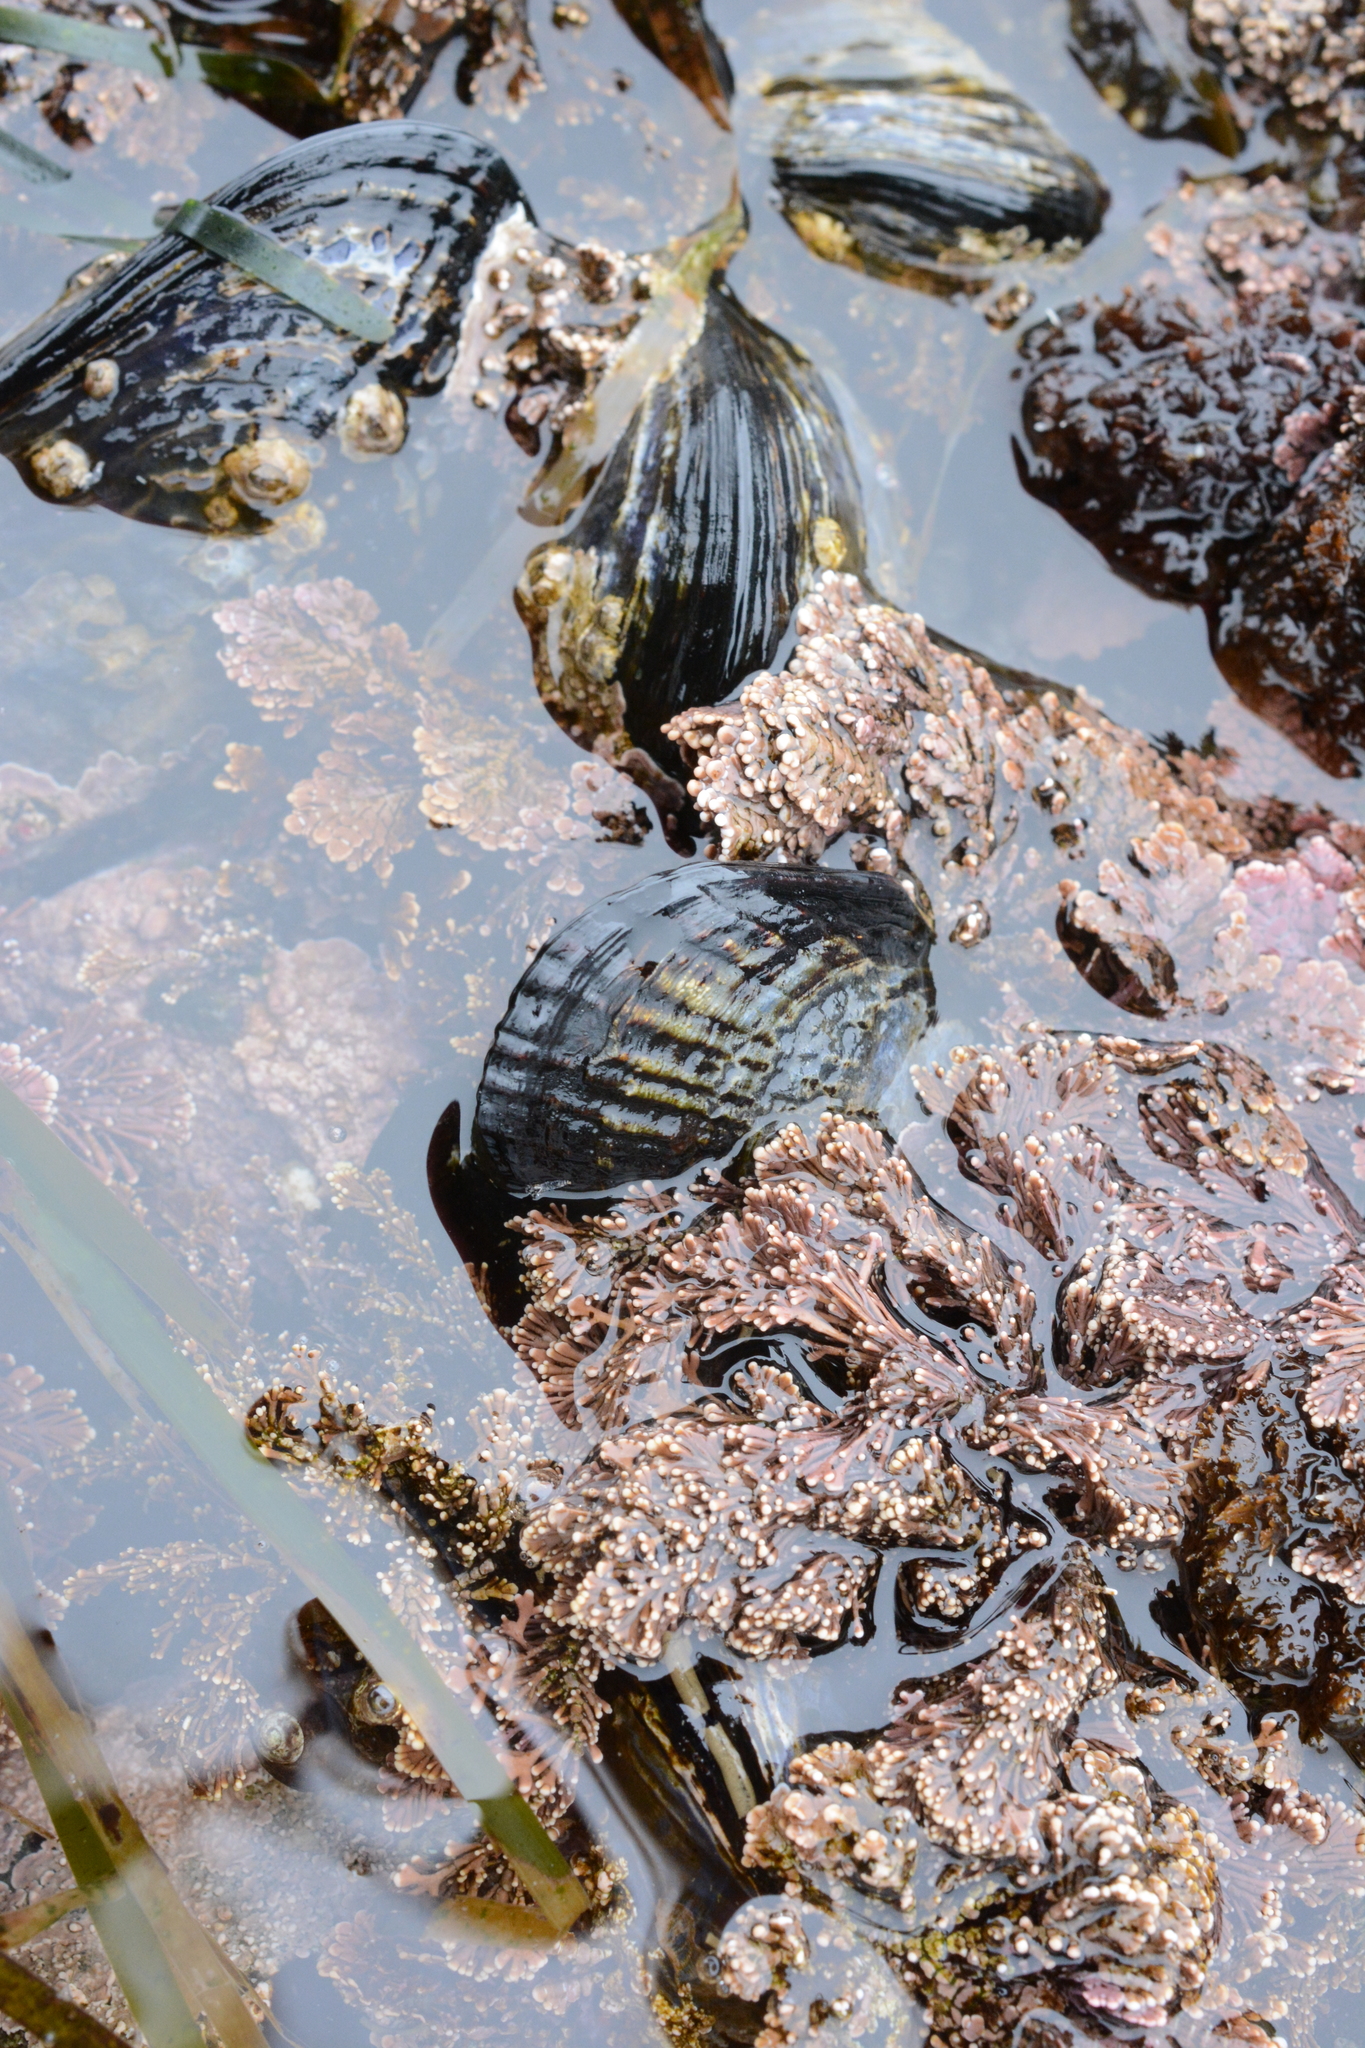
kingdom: Animalia
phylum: Mollusca
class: Bivalvia
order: Mytilida
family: Mytilidae
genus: Mytilus
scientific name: Mytilus californianus
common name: California mussel
